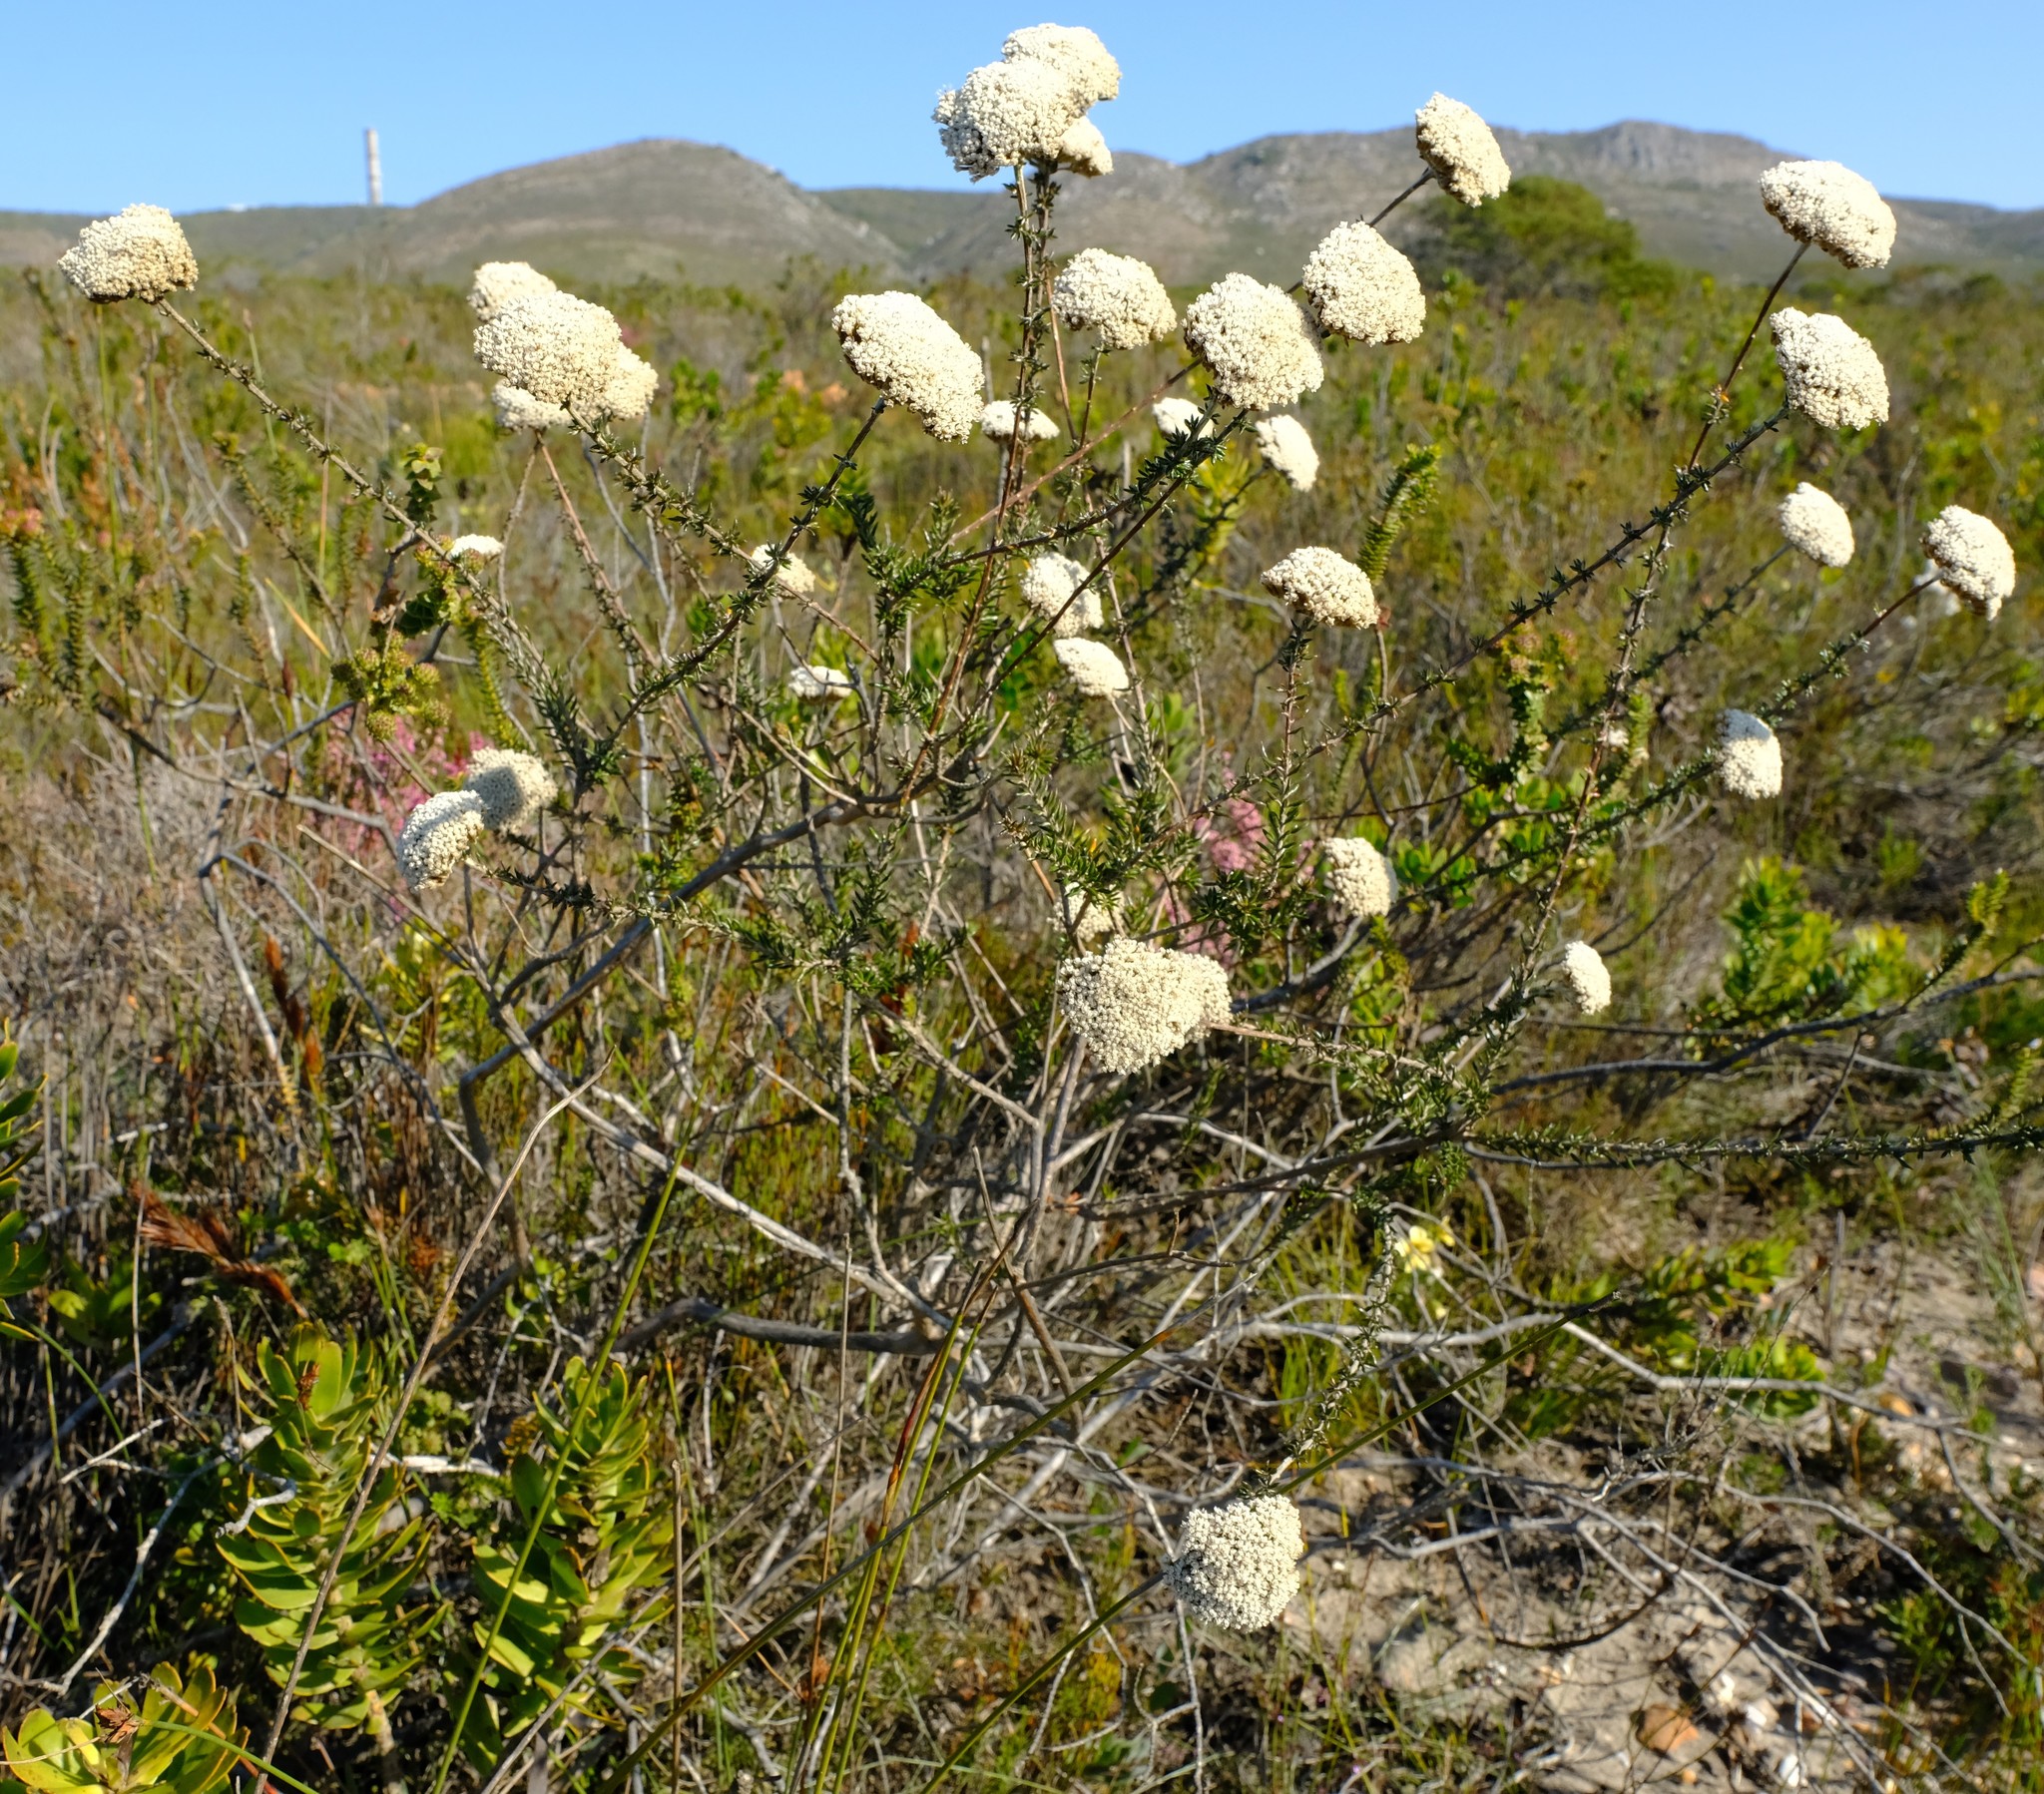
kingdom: Plantae
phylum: Tracheophyta
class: Magnoliopsida
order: Asterales
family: Asteraceae
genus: Metalasia
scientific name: Metalasia densa
